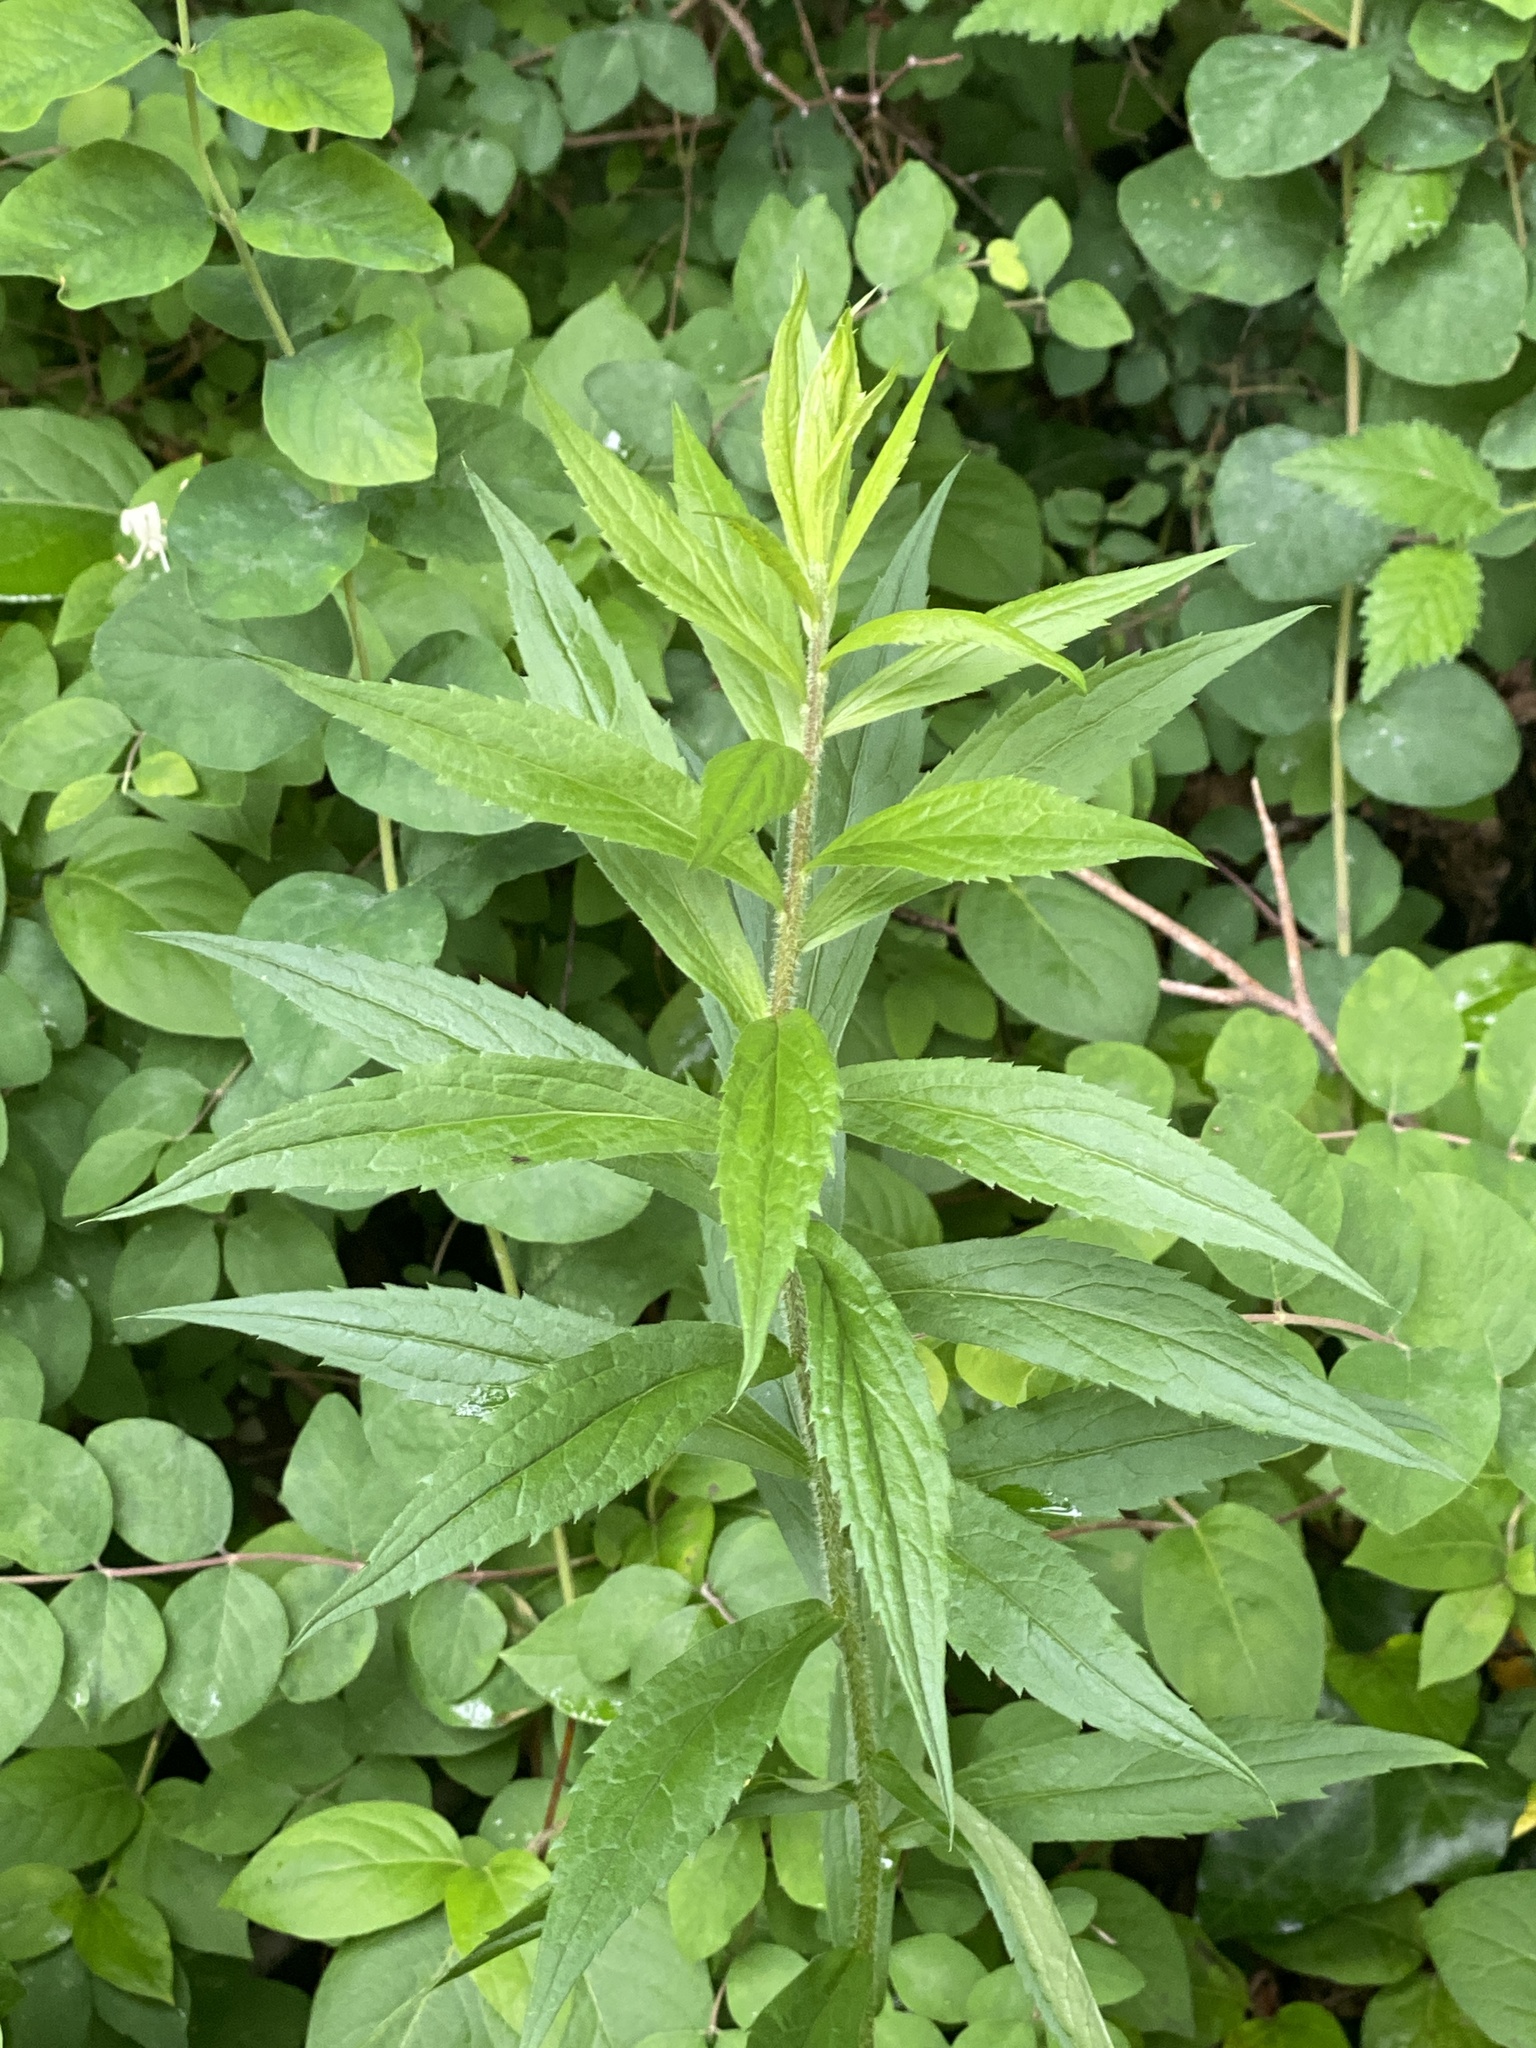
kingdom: Plantae
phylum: Tracheophyta
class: Magnoliopsida
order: Asterales
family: Asteraceae
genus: Solidago
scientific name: Solidago rugosa
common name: Rough-stemmed goldenrod
